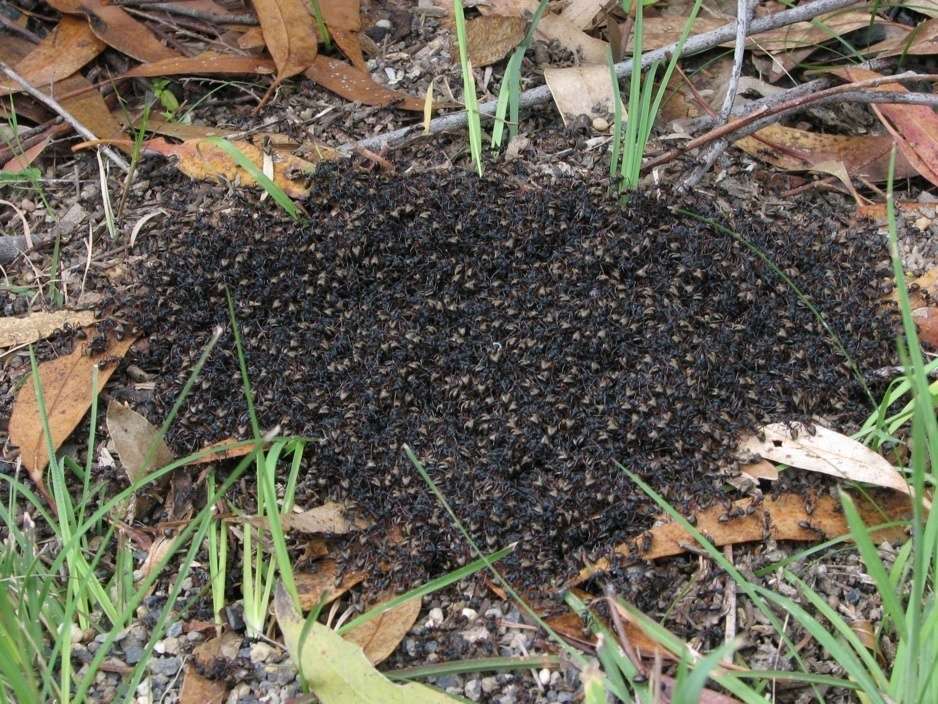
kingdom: Animalia
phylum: Arthropoda
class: Insecta
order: Hymenoptera
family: Formicidae
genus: Dolichoderus
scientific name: Dolichoderus doriae
